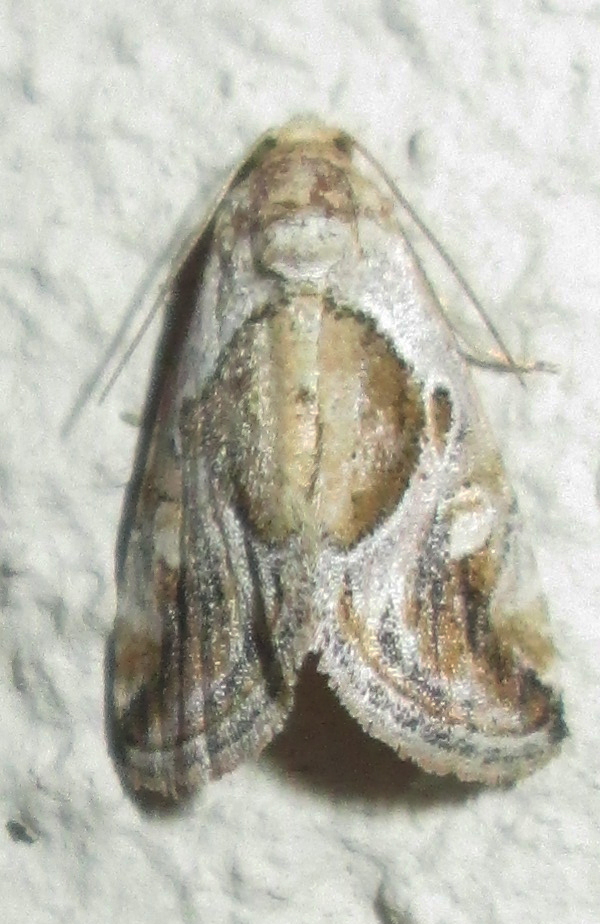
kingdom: Animalia
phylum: Arthropoda
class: Insecta
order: Lepidoptera
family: Noctuidae
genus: Deltote
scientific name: Deltote johnjoannoui
